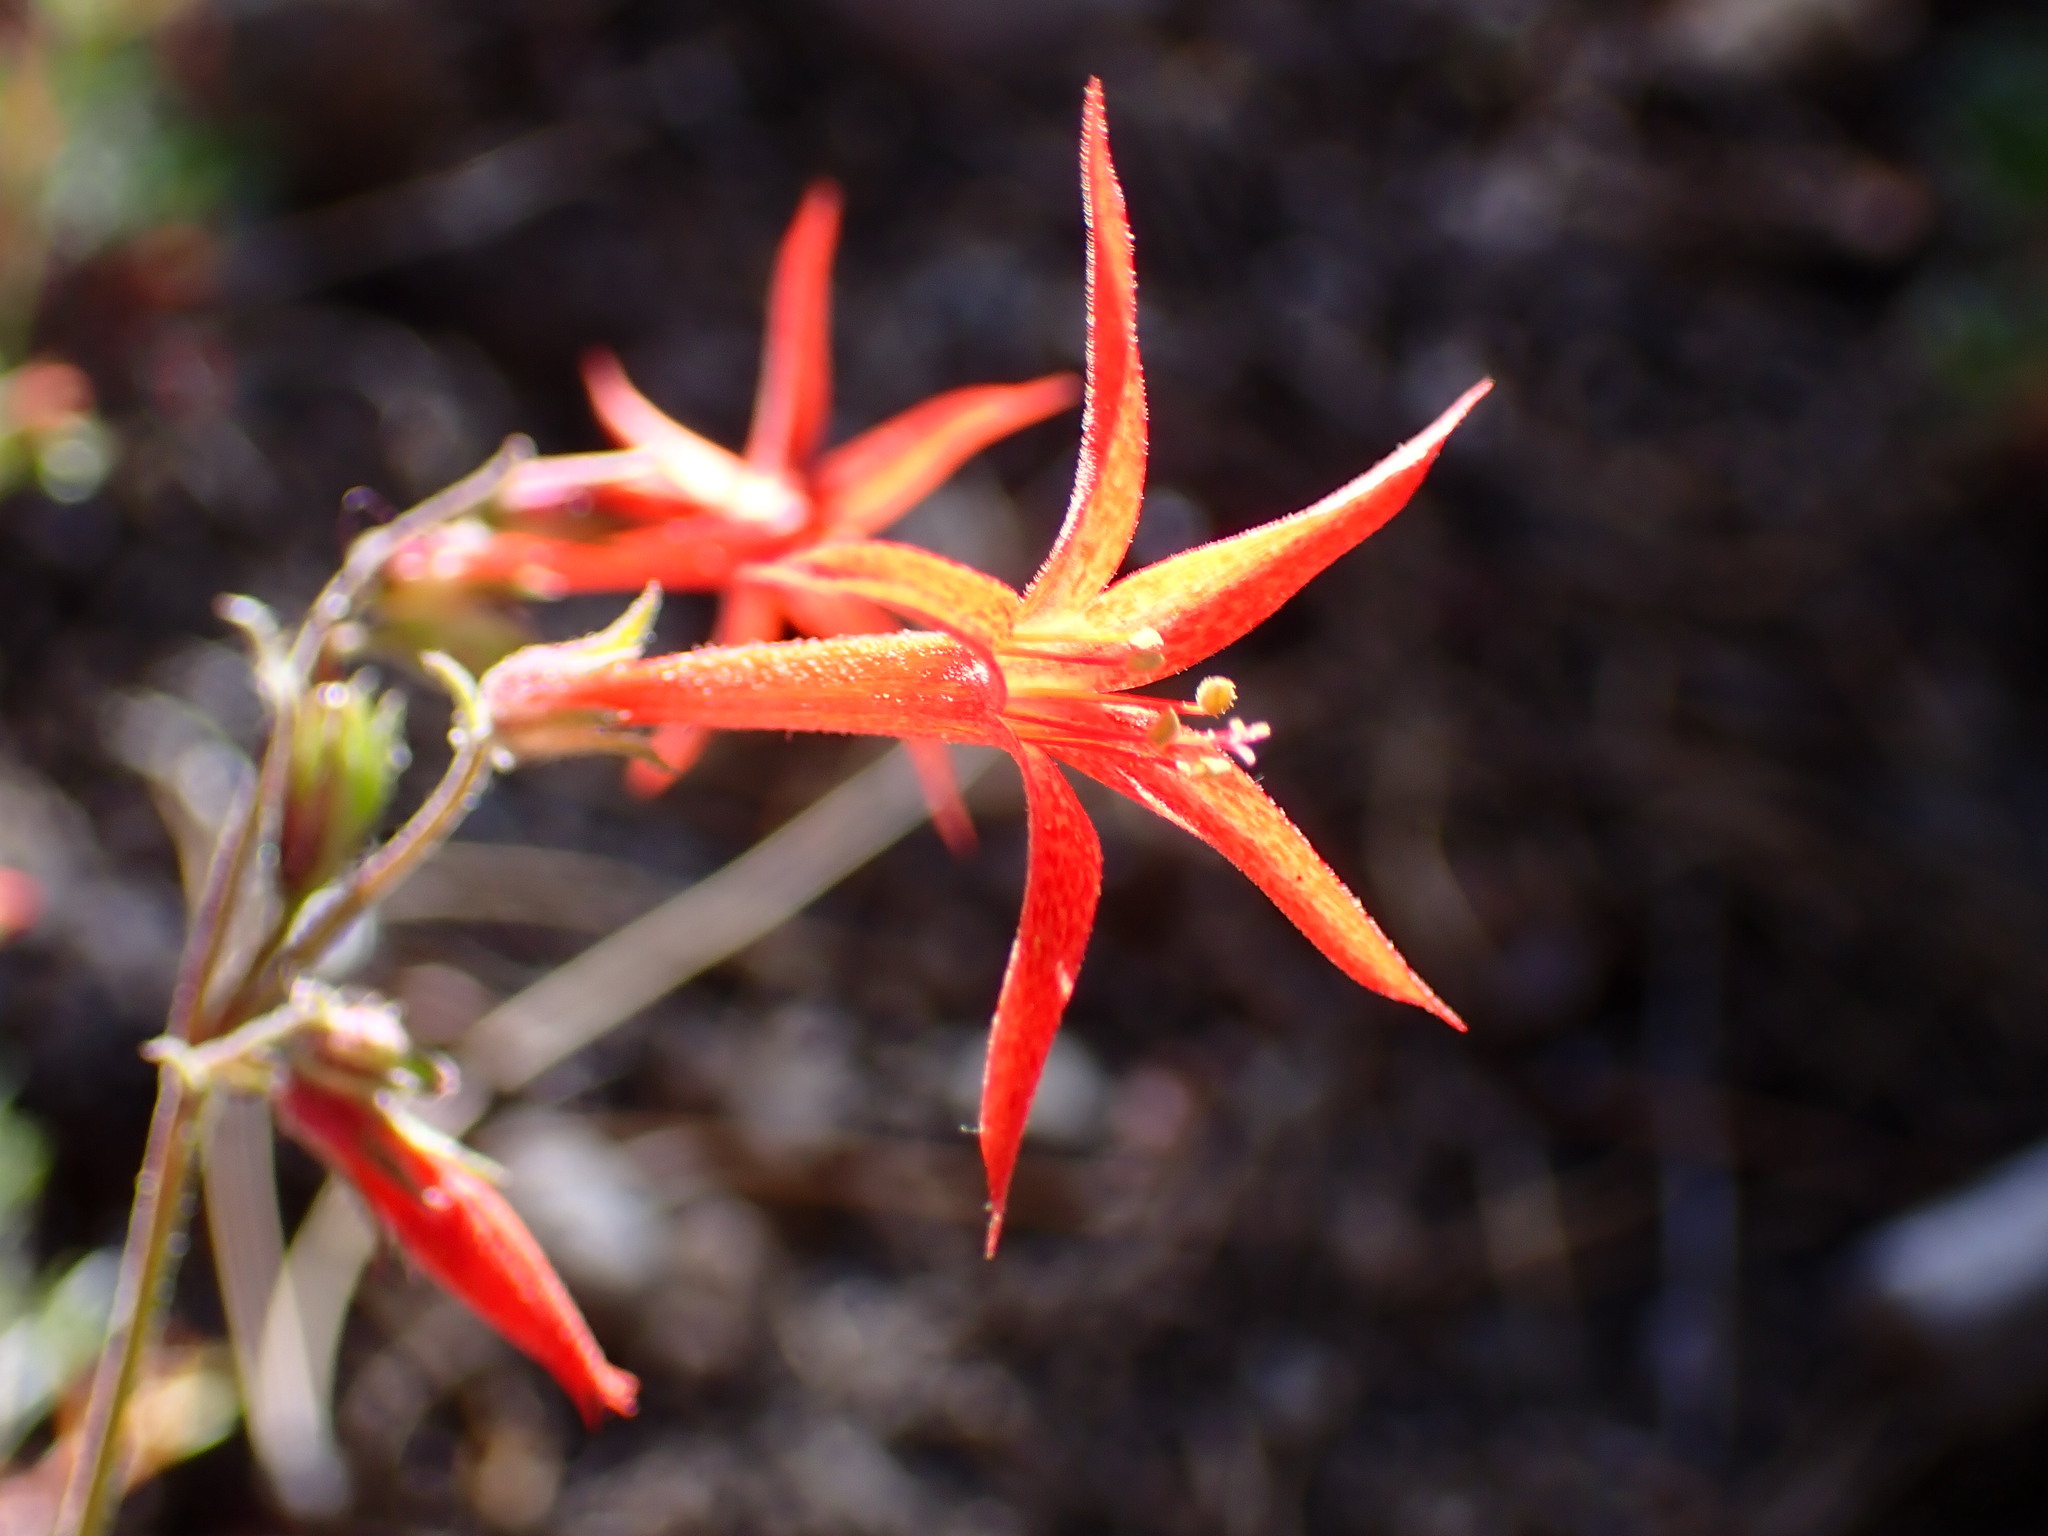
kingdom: Plantae
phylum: Tracheophyta
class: Magnoliopsida
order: Ericales
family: Polemoniaceae
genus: Ipomopsis
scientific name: Ipomopsis aggregata
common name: Scarlet gilia
